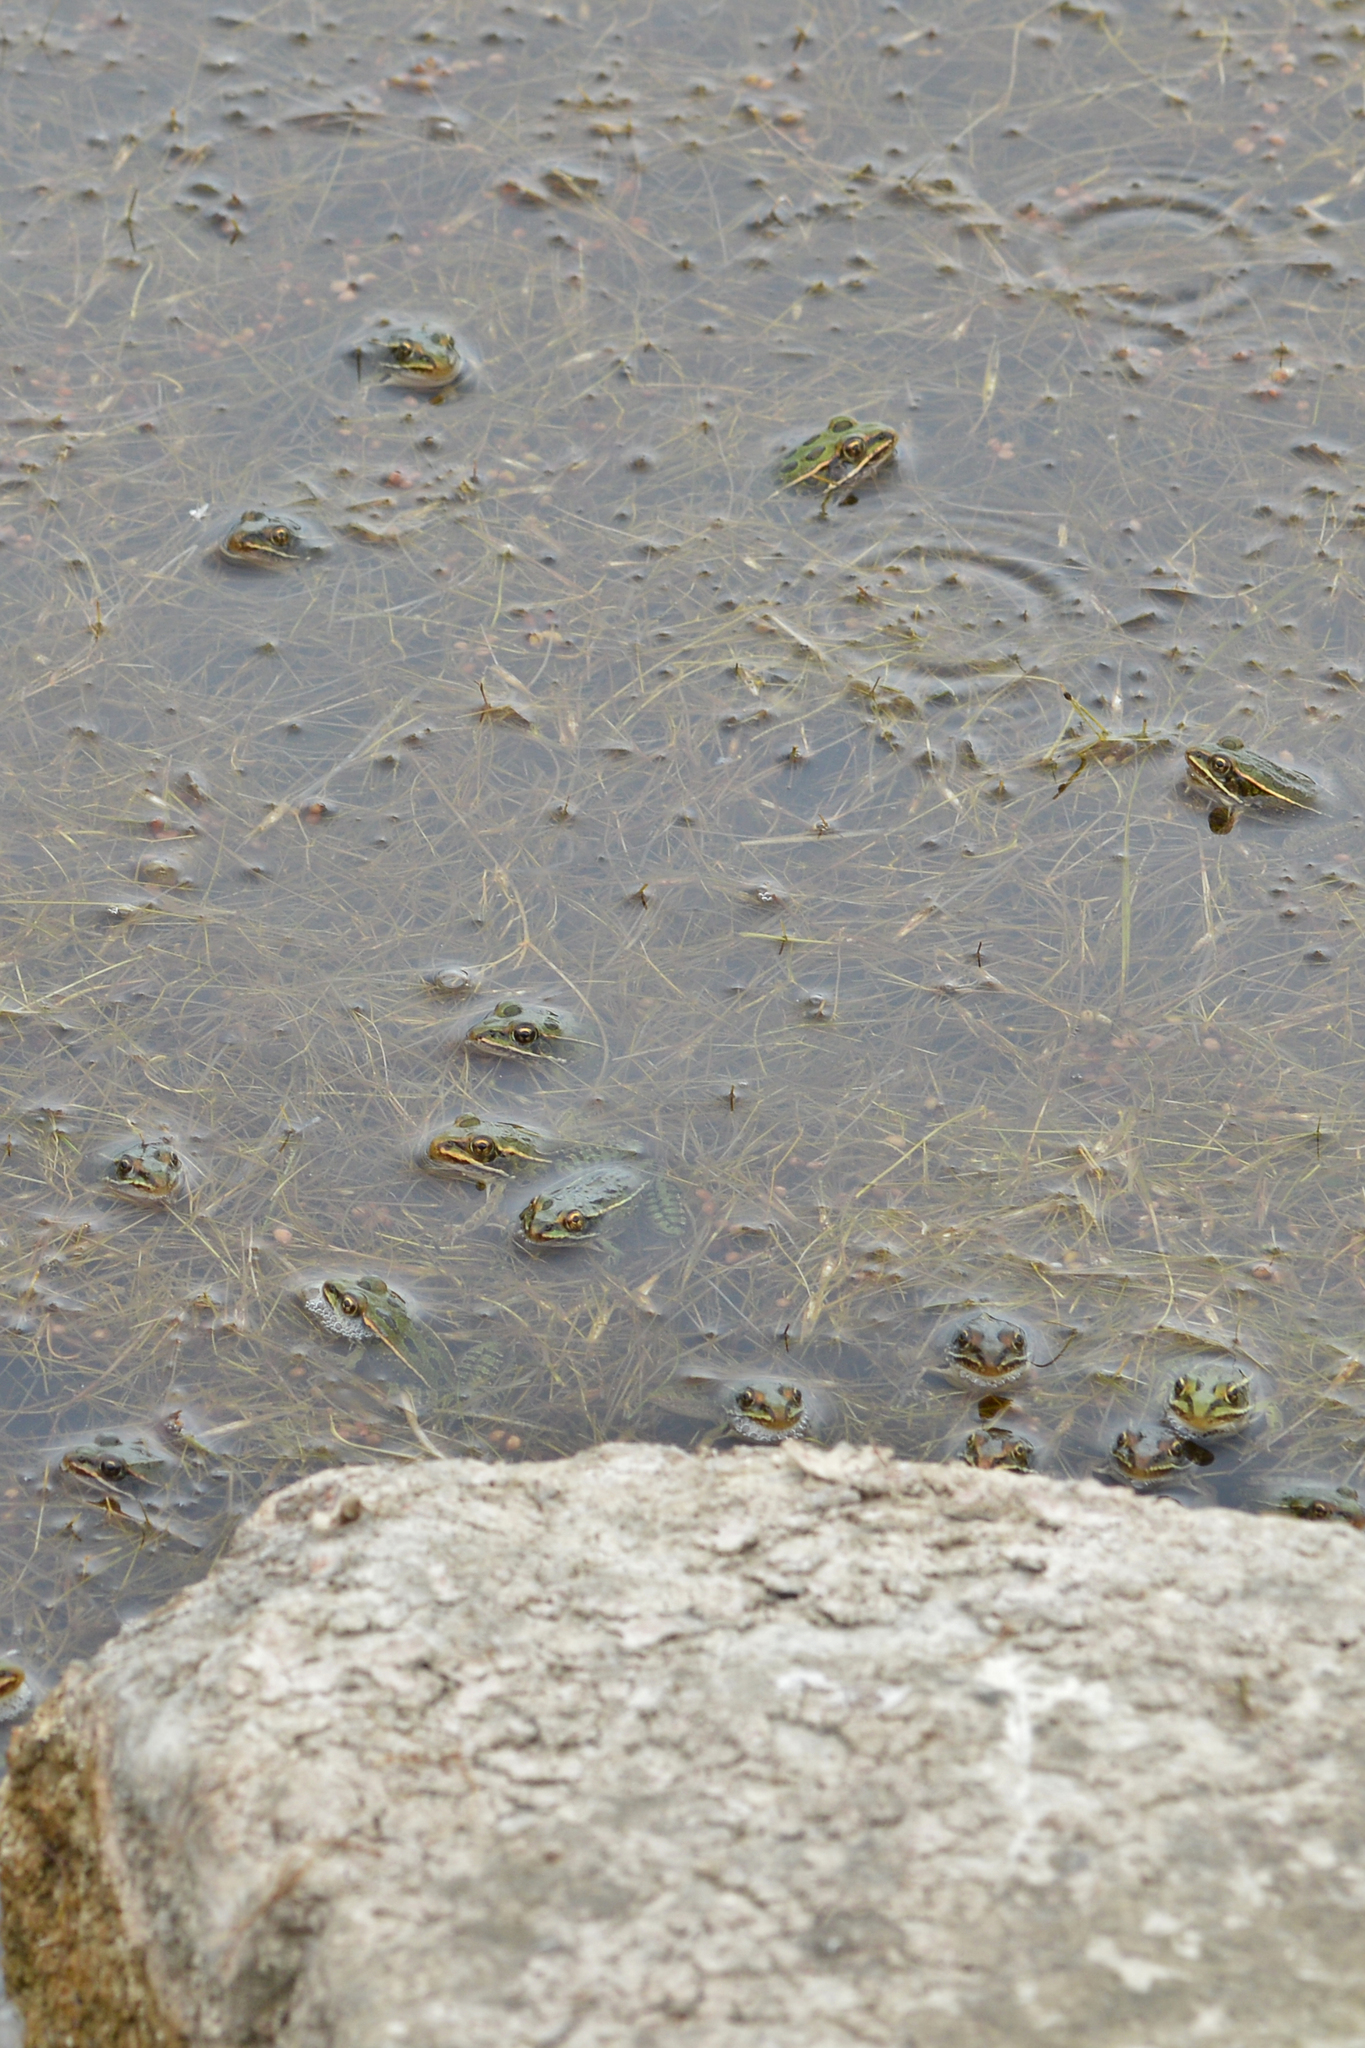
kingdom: Animalia
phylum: Chordata
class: Amphibia
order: Anura
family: Ranidae
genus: Lithobates
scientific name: Lithobates pipiens
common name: Northern leopard frog
